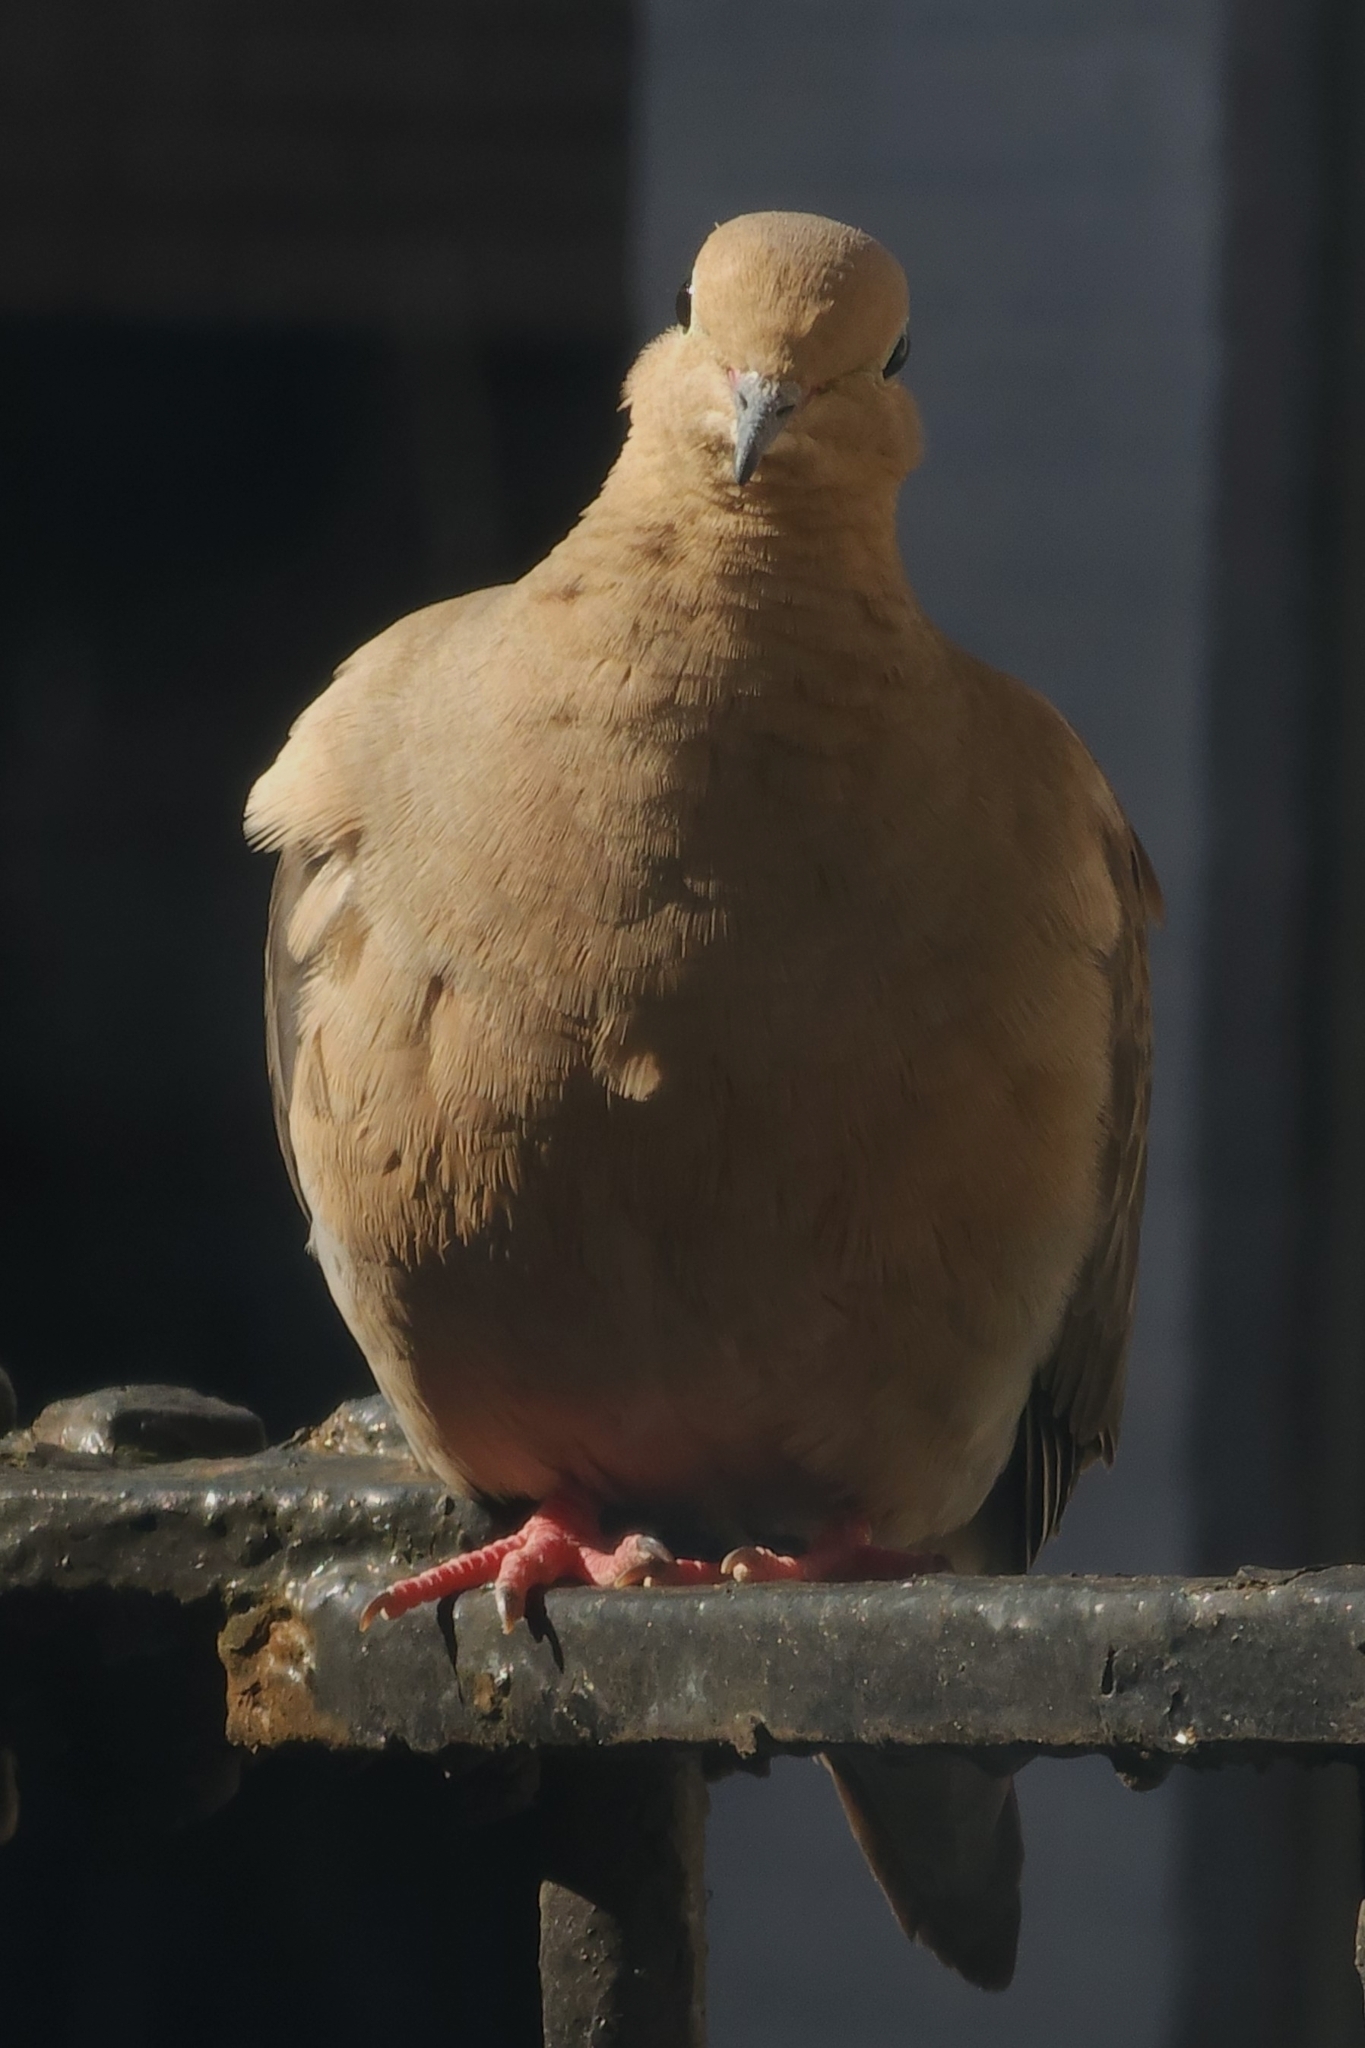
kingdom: Animalia
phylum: Chordata
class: Aves
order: Columbiformes
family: Columbidae
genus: Zenaida
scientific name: Zenaida macroura
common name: Mourning dove
